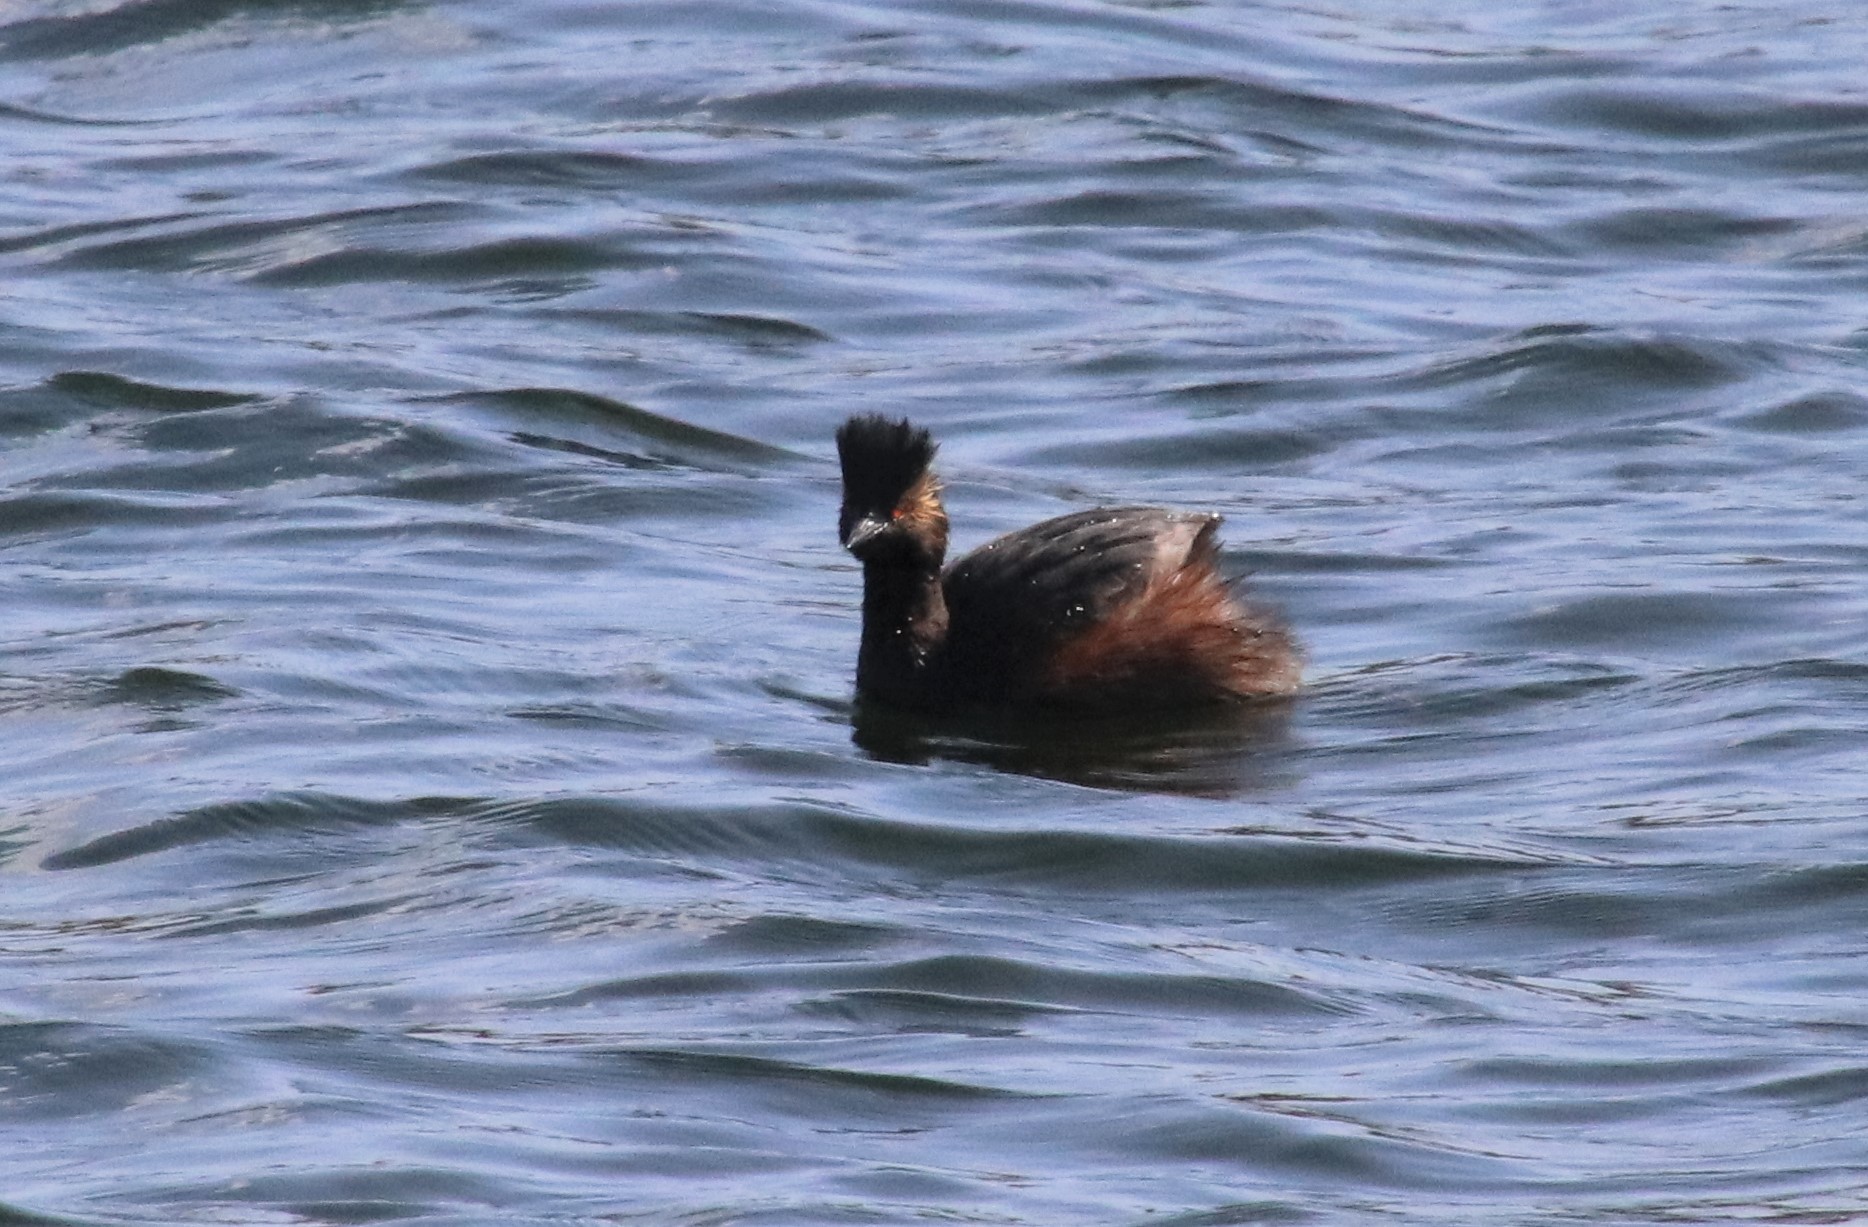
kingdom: Animalia
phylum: Chordata
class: Aves
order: Podicipediformes
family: Podicipedidae
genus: Podiceps
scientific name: Podiceps nigricollis
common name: Black-necked grebe
